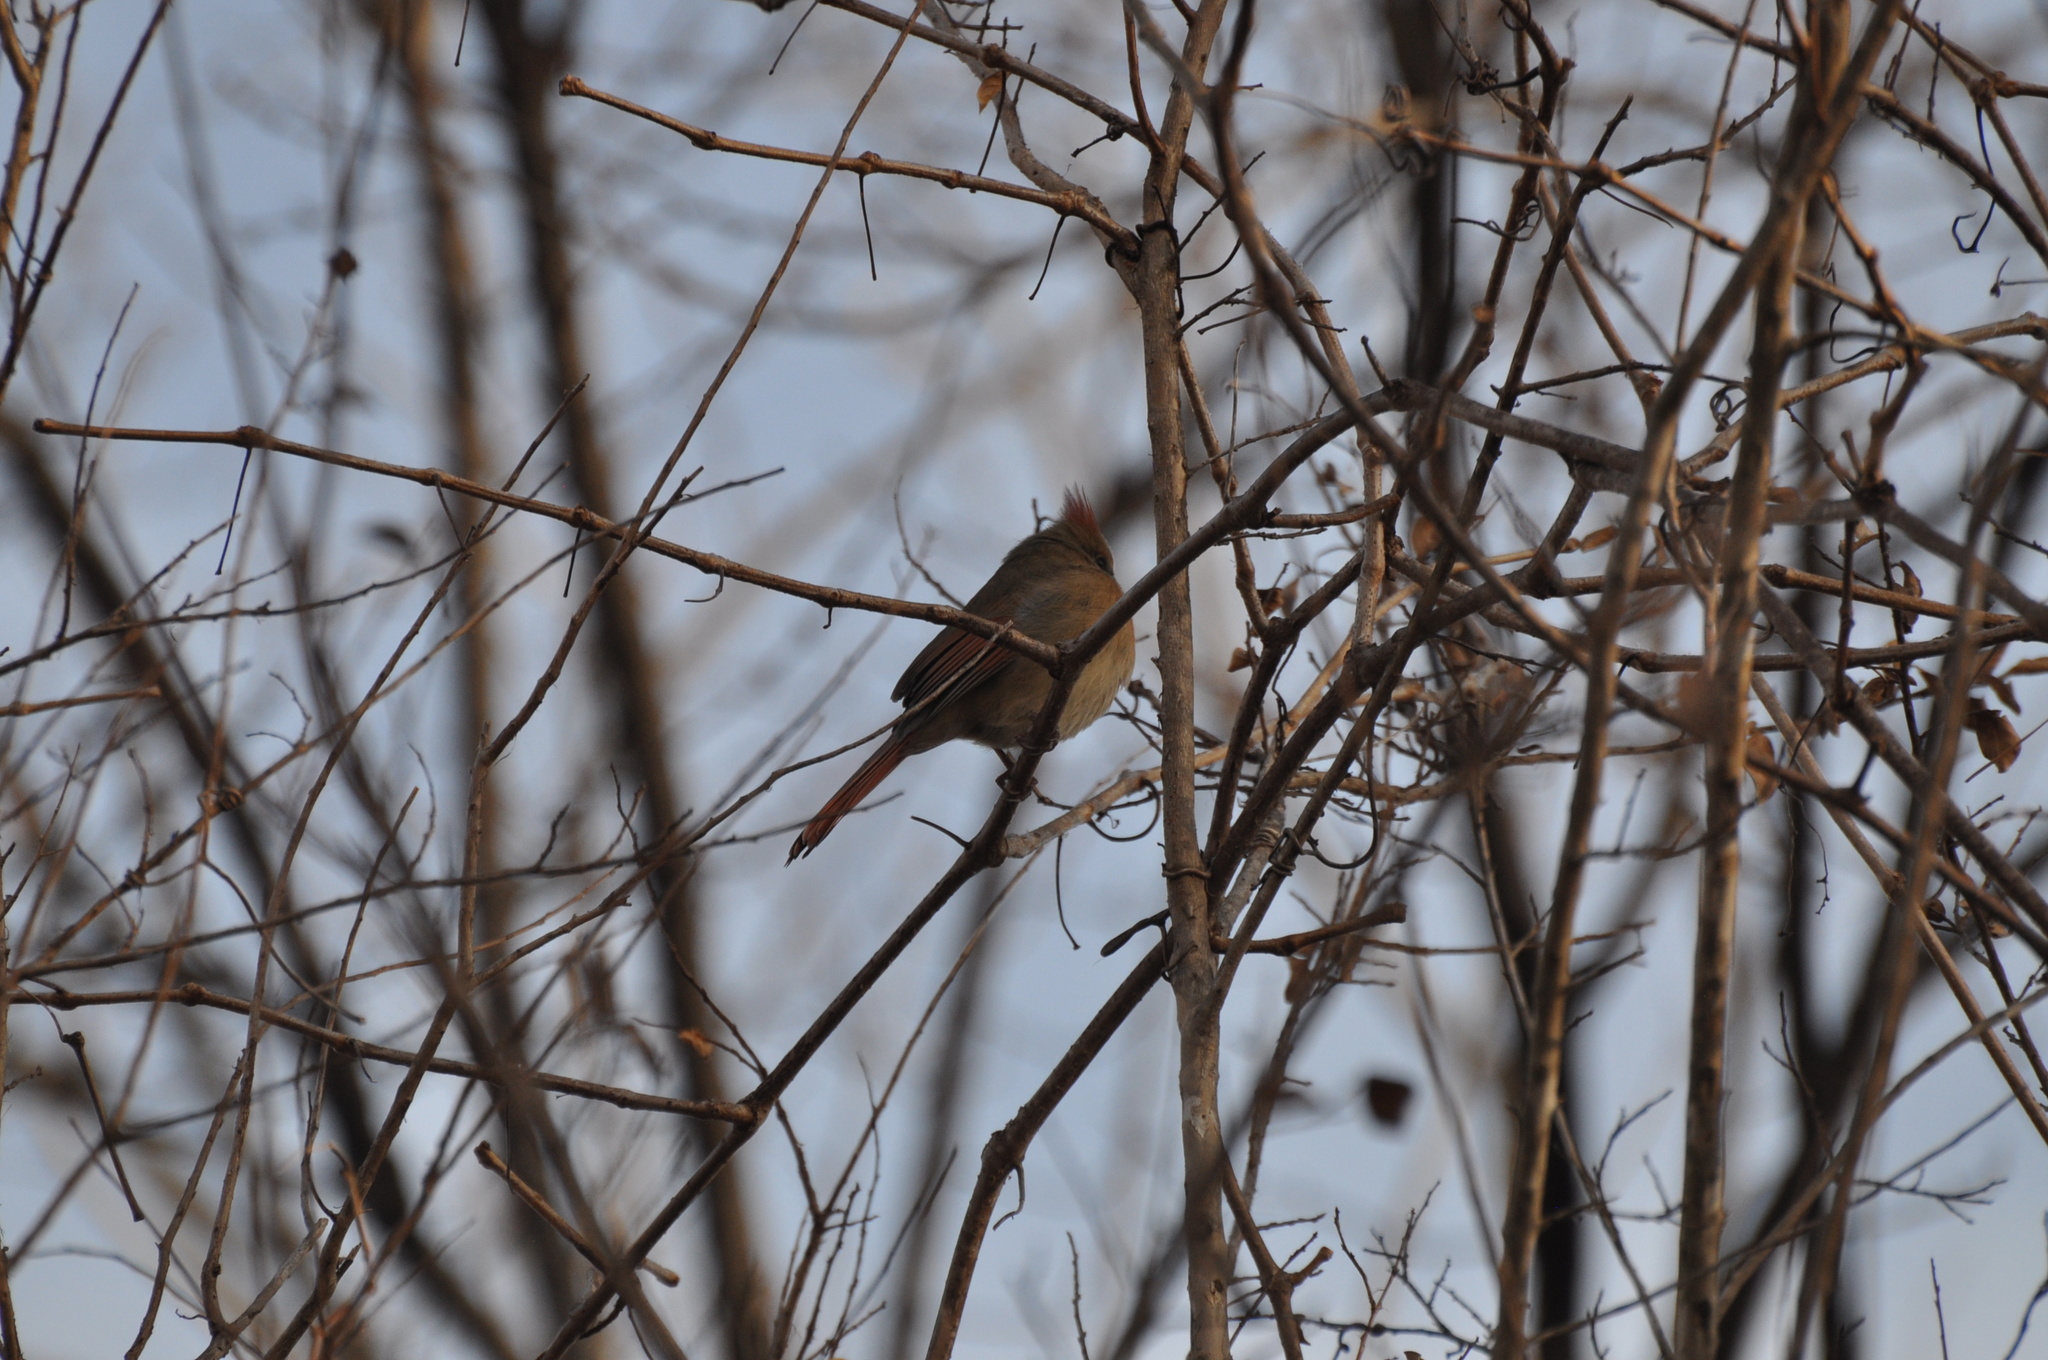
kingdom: Animalia
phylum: Chordata
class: Aves
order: Passeriformes
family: Cardinalidae
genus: Cardinalis
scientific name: Cardinalis cardinalis
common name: Northern cardinal
